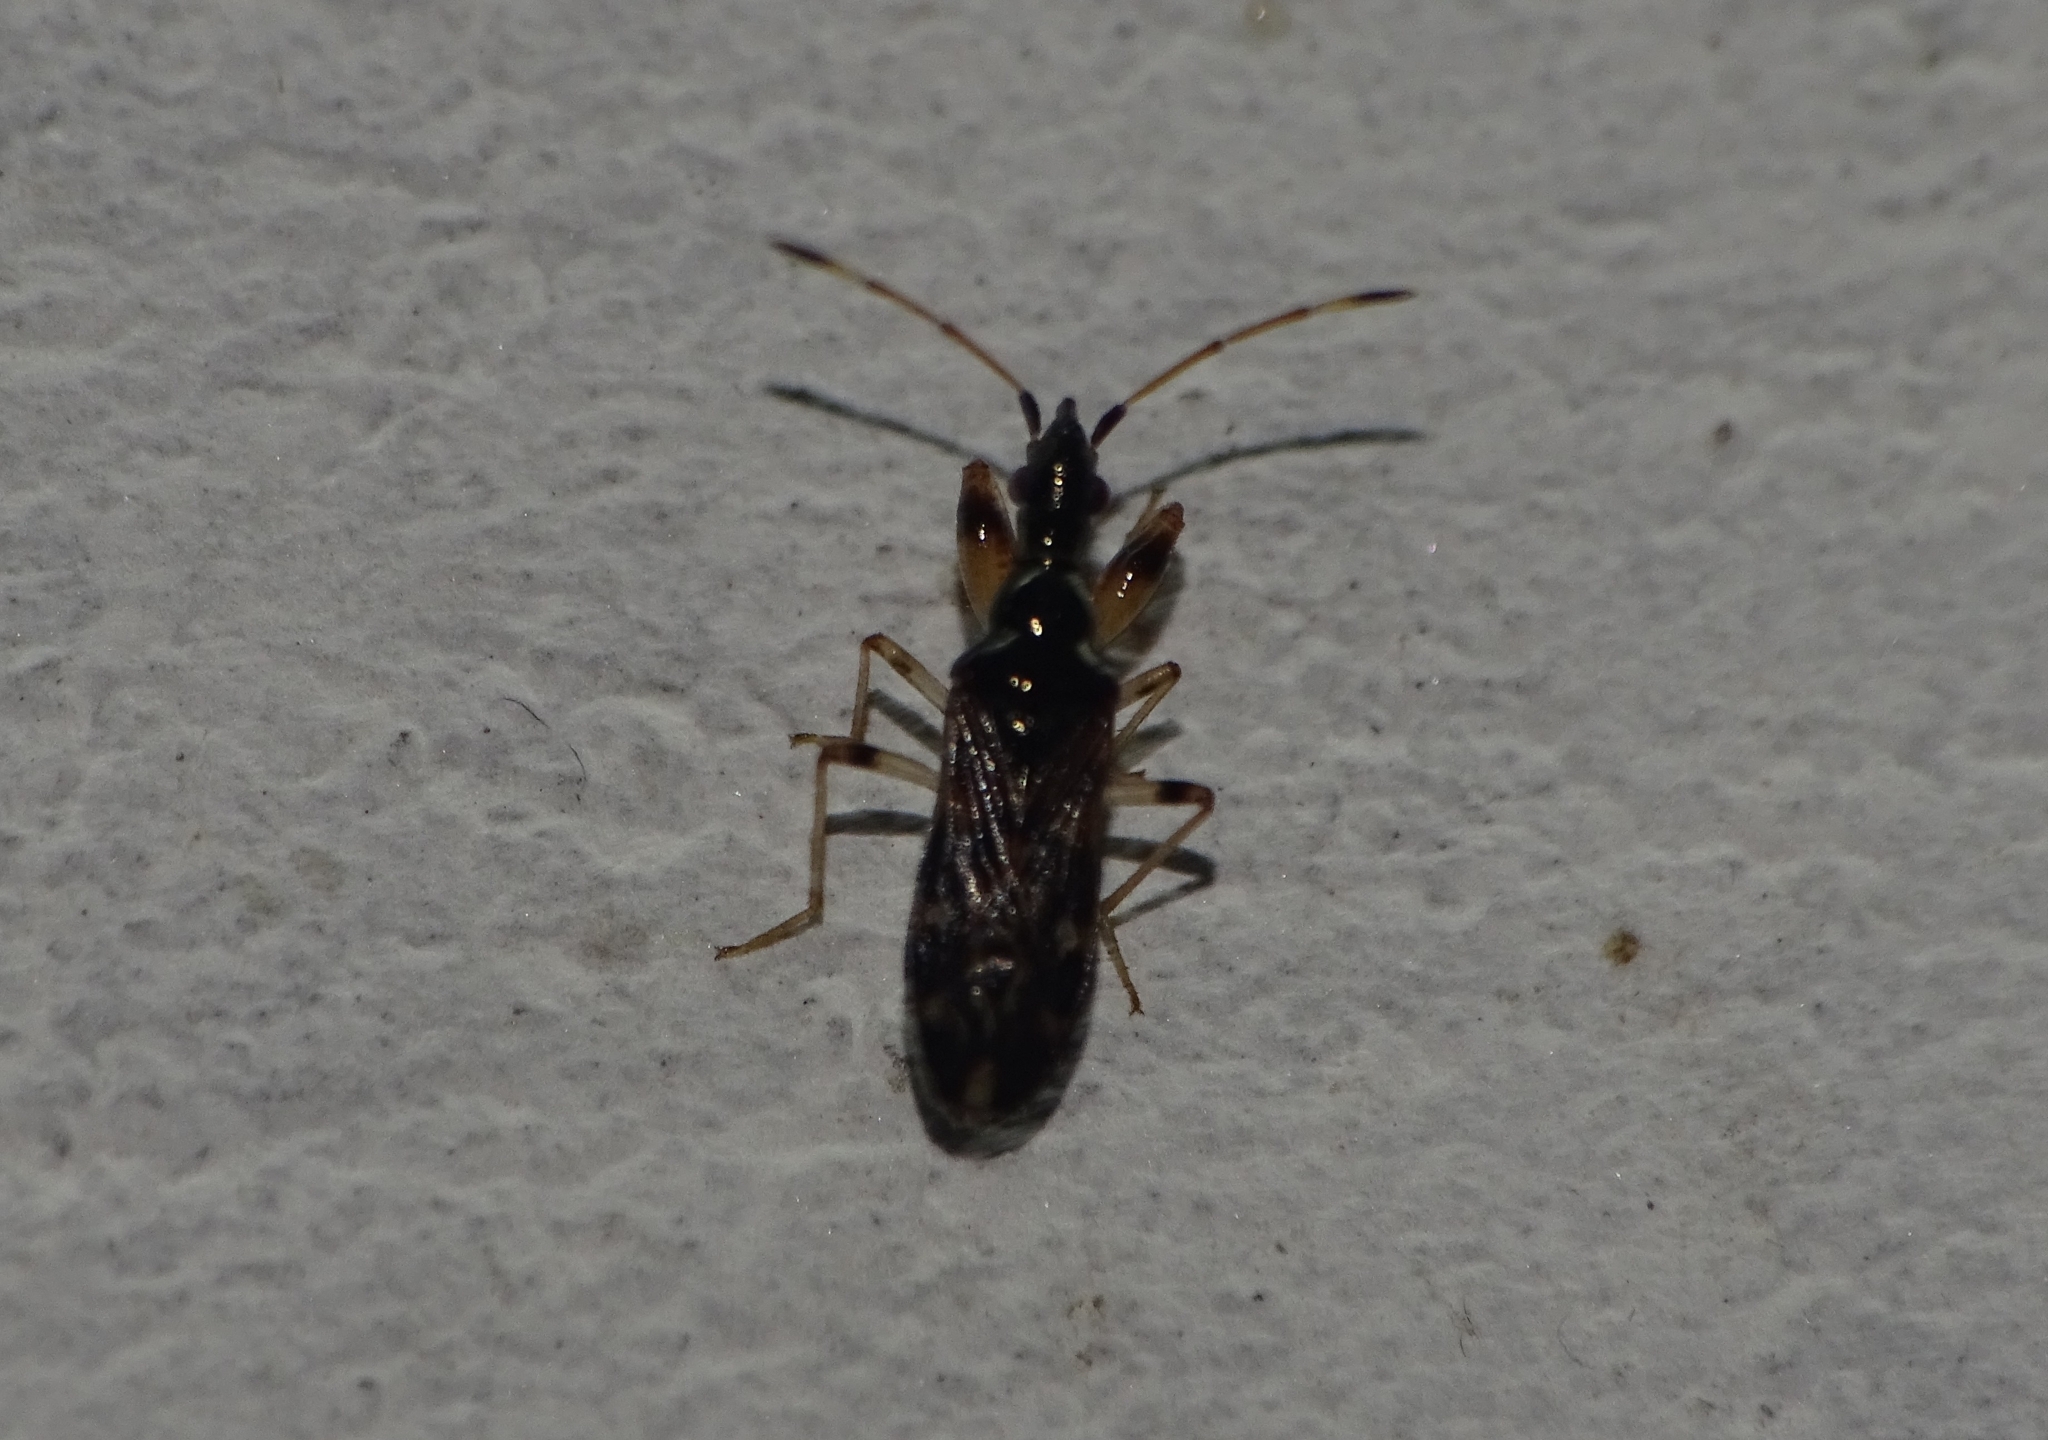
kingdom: Animalia
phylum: Arthropoda
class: Insecta
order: Hemiptera
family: Rhyparochromidae
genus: Altomarus
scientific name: Altomarus greeni
